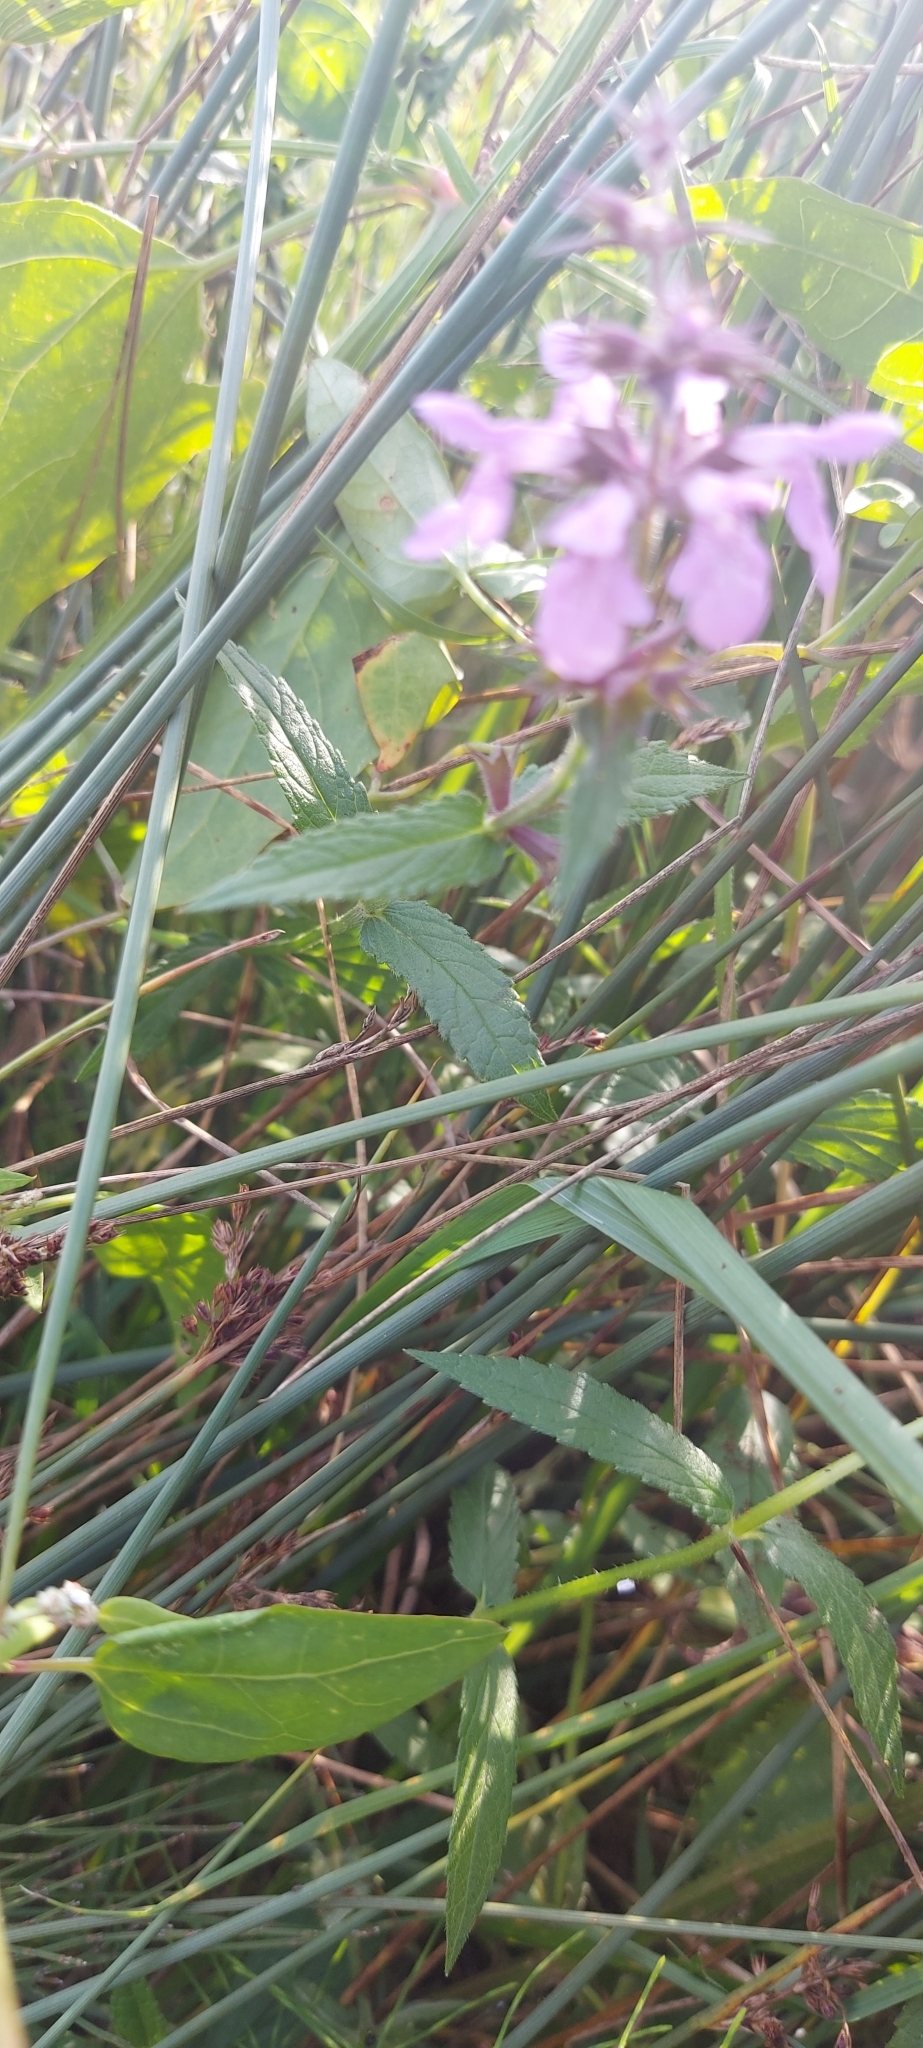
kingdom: Plantae
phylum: Tracheophyta
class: Magnoliopsida
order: Lamiales
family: Lamiaceae
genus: Stachys
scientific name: Stachys palustris
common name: Marsh woundwort
